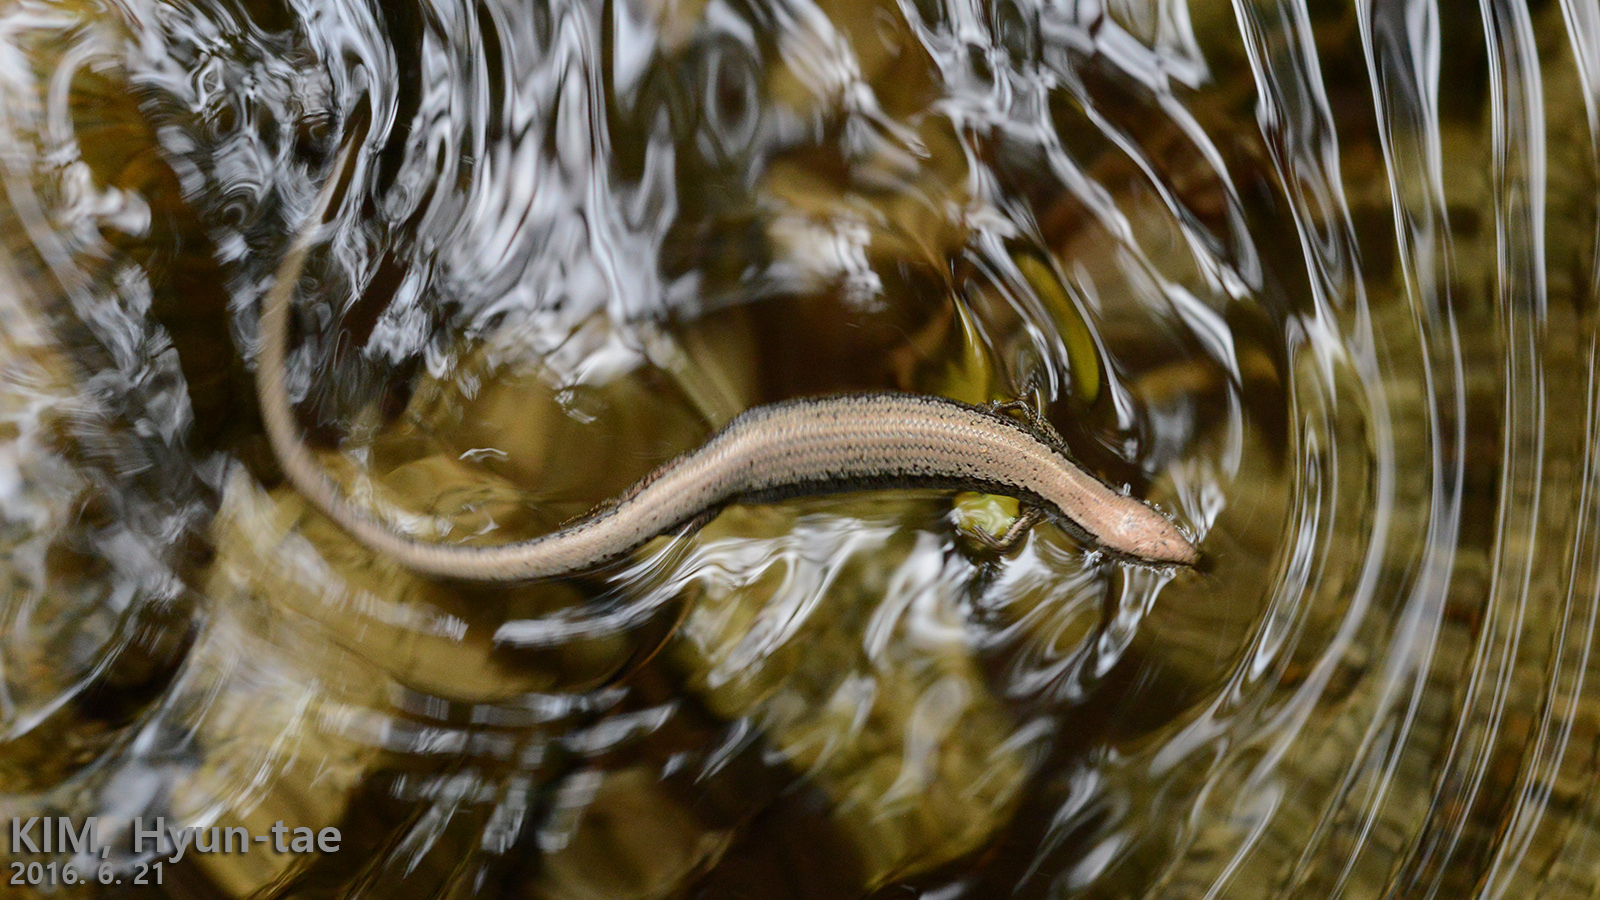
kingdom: Animalia
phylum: Chordata
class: Squamata
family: Scincidae
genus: Scincella
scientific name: Scincella vandenburghi
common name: Tsushima smooth skink
